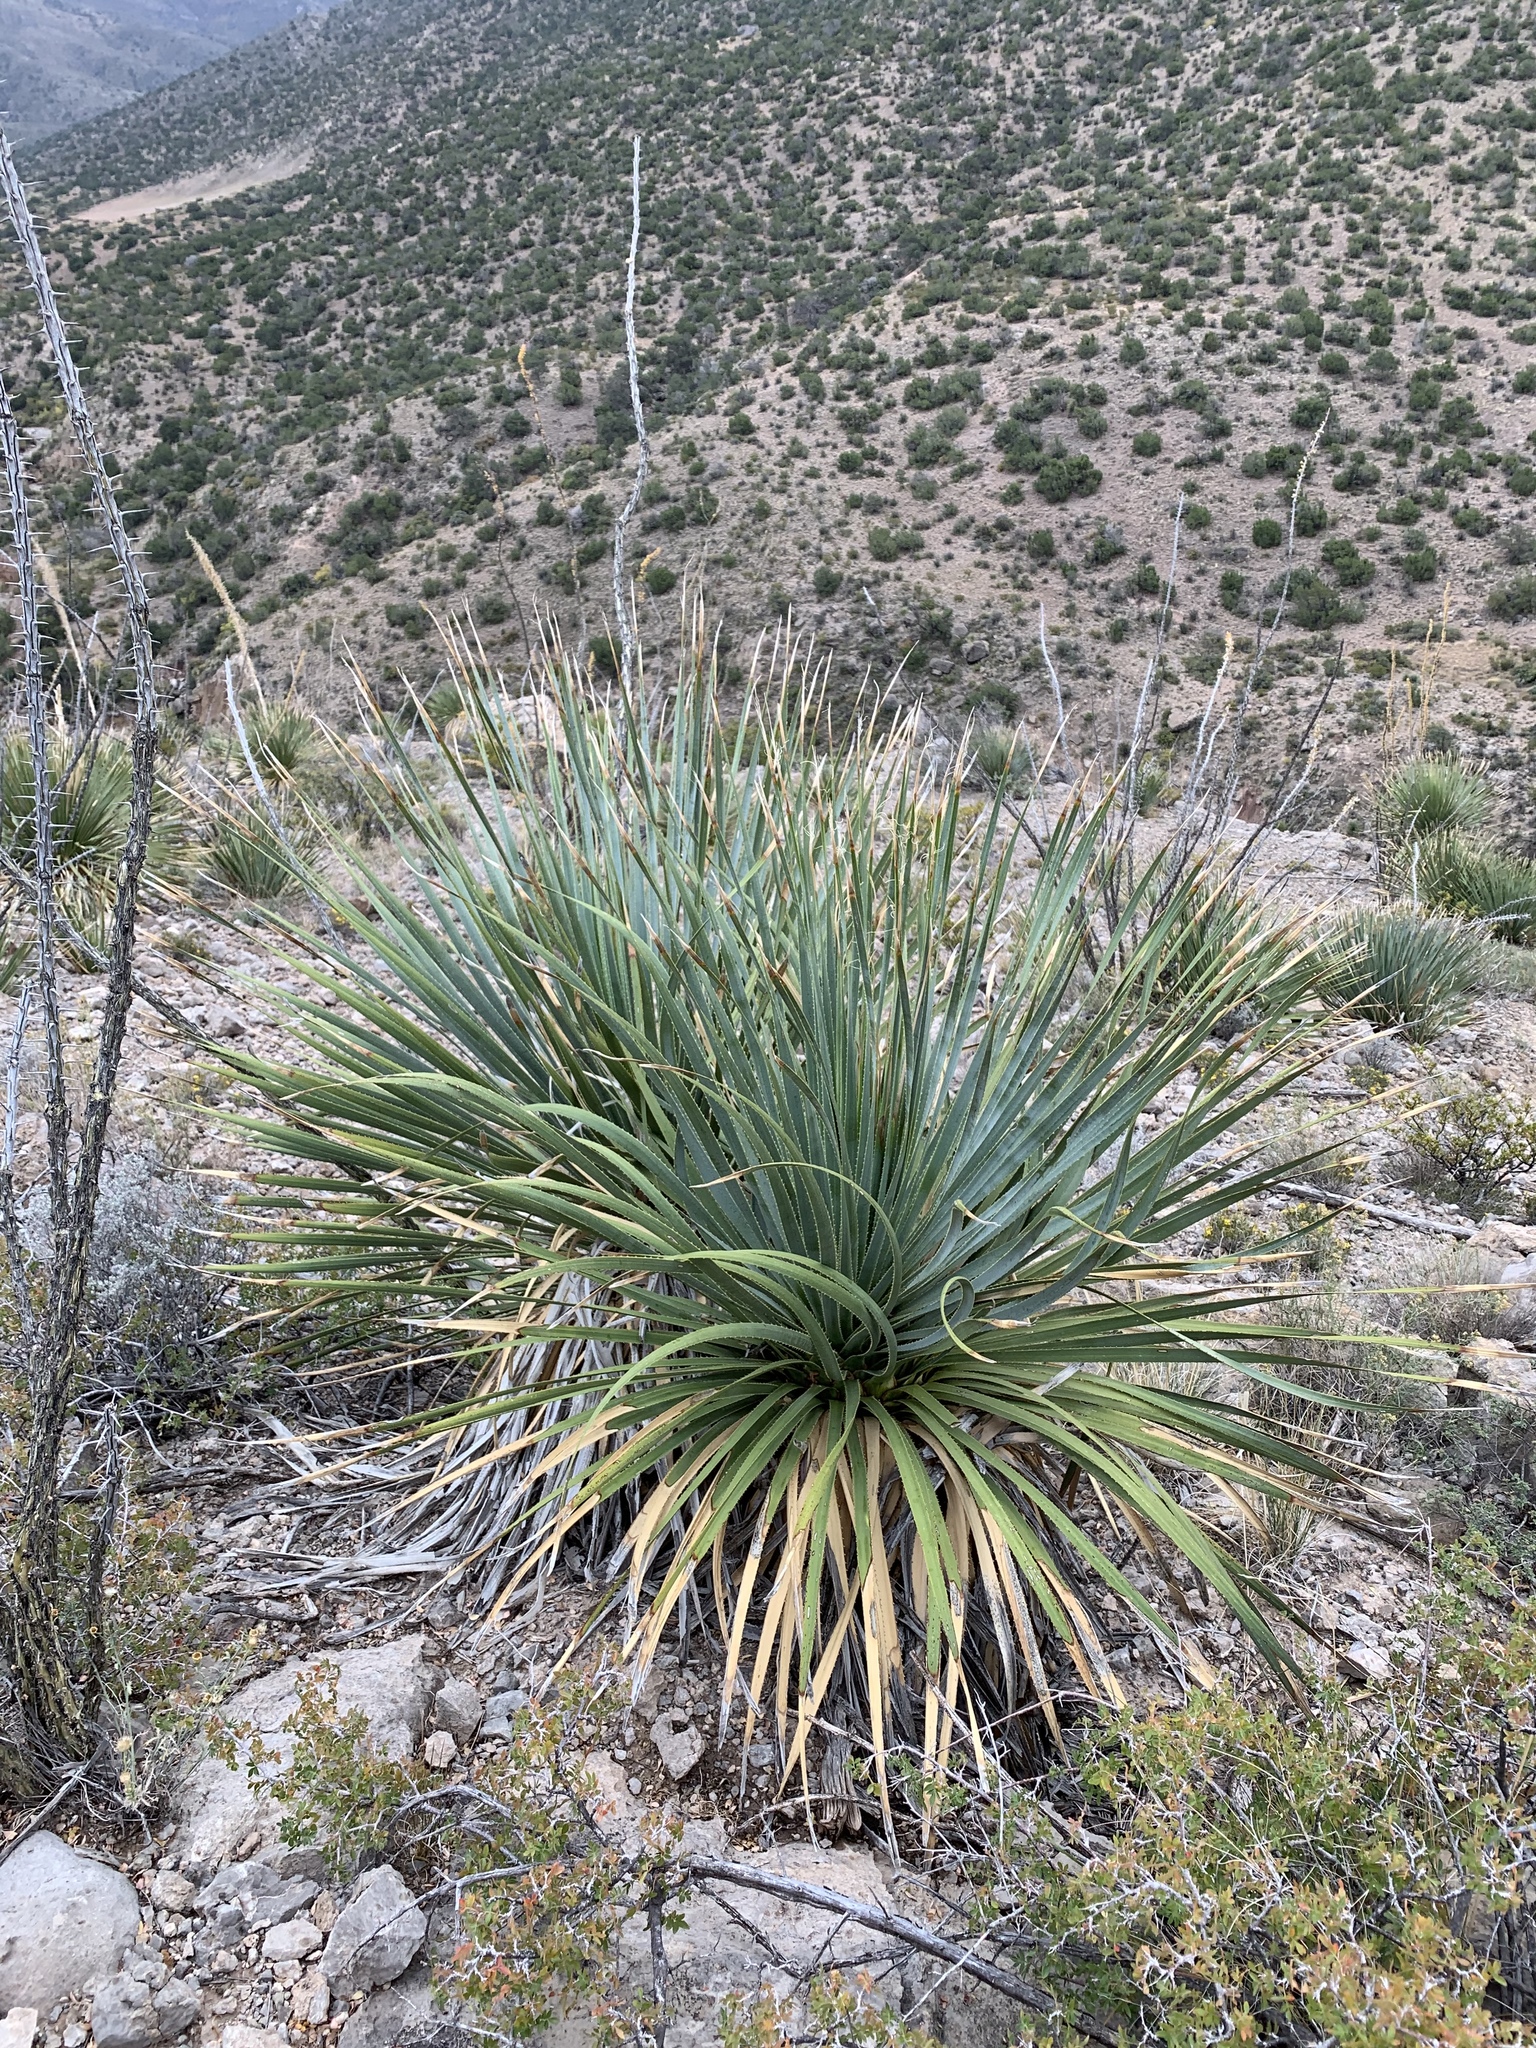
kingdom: Plantae
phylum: Tracheophyta
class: Liliopsida
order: Asparagales
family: Asparagaceae
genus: Dasylirion
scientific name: Dasylirion wheeleri
